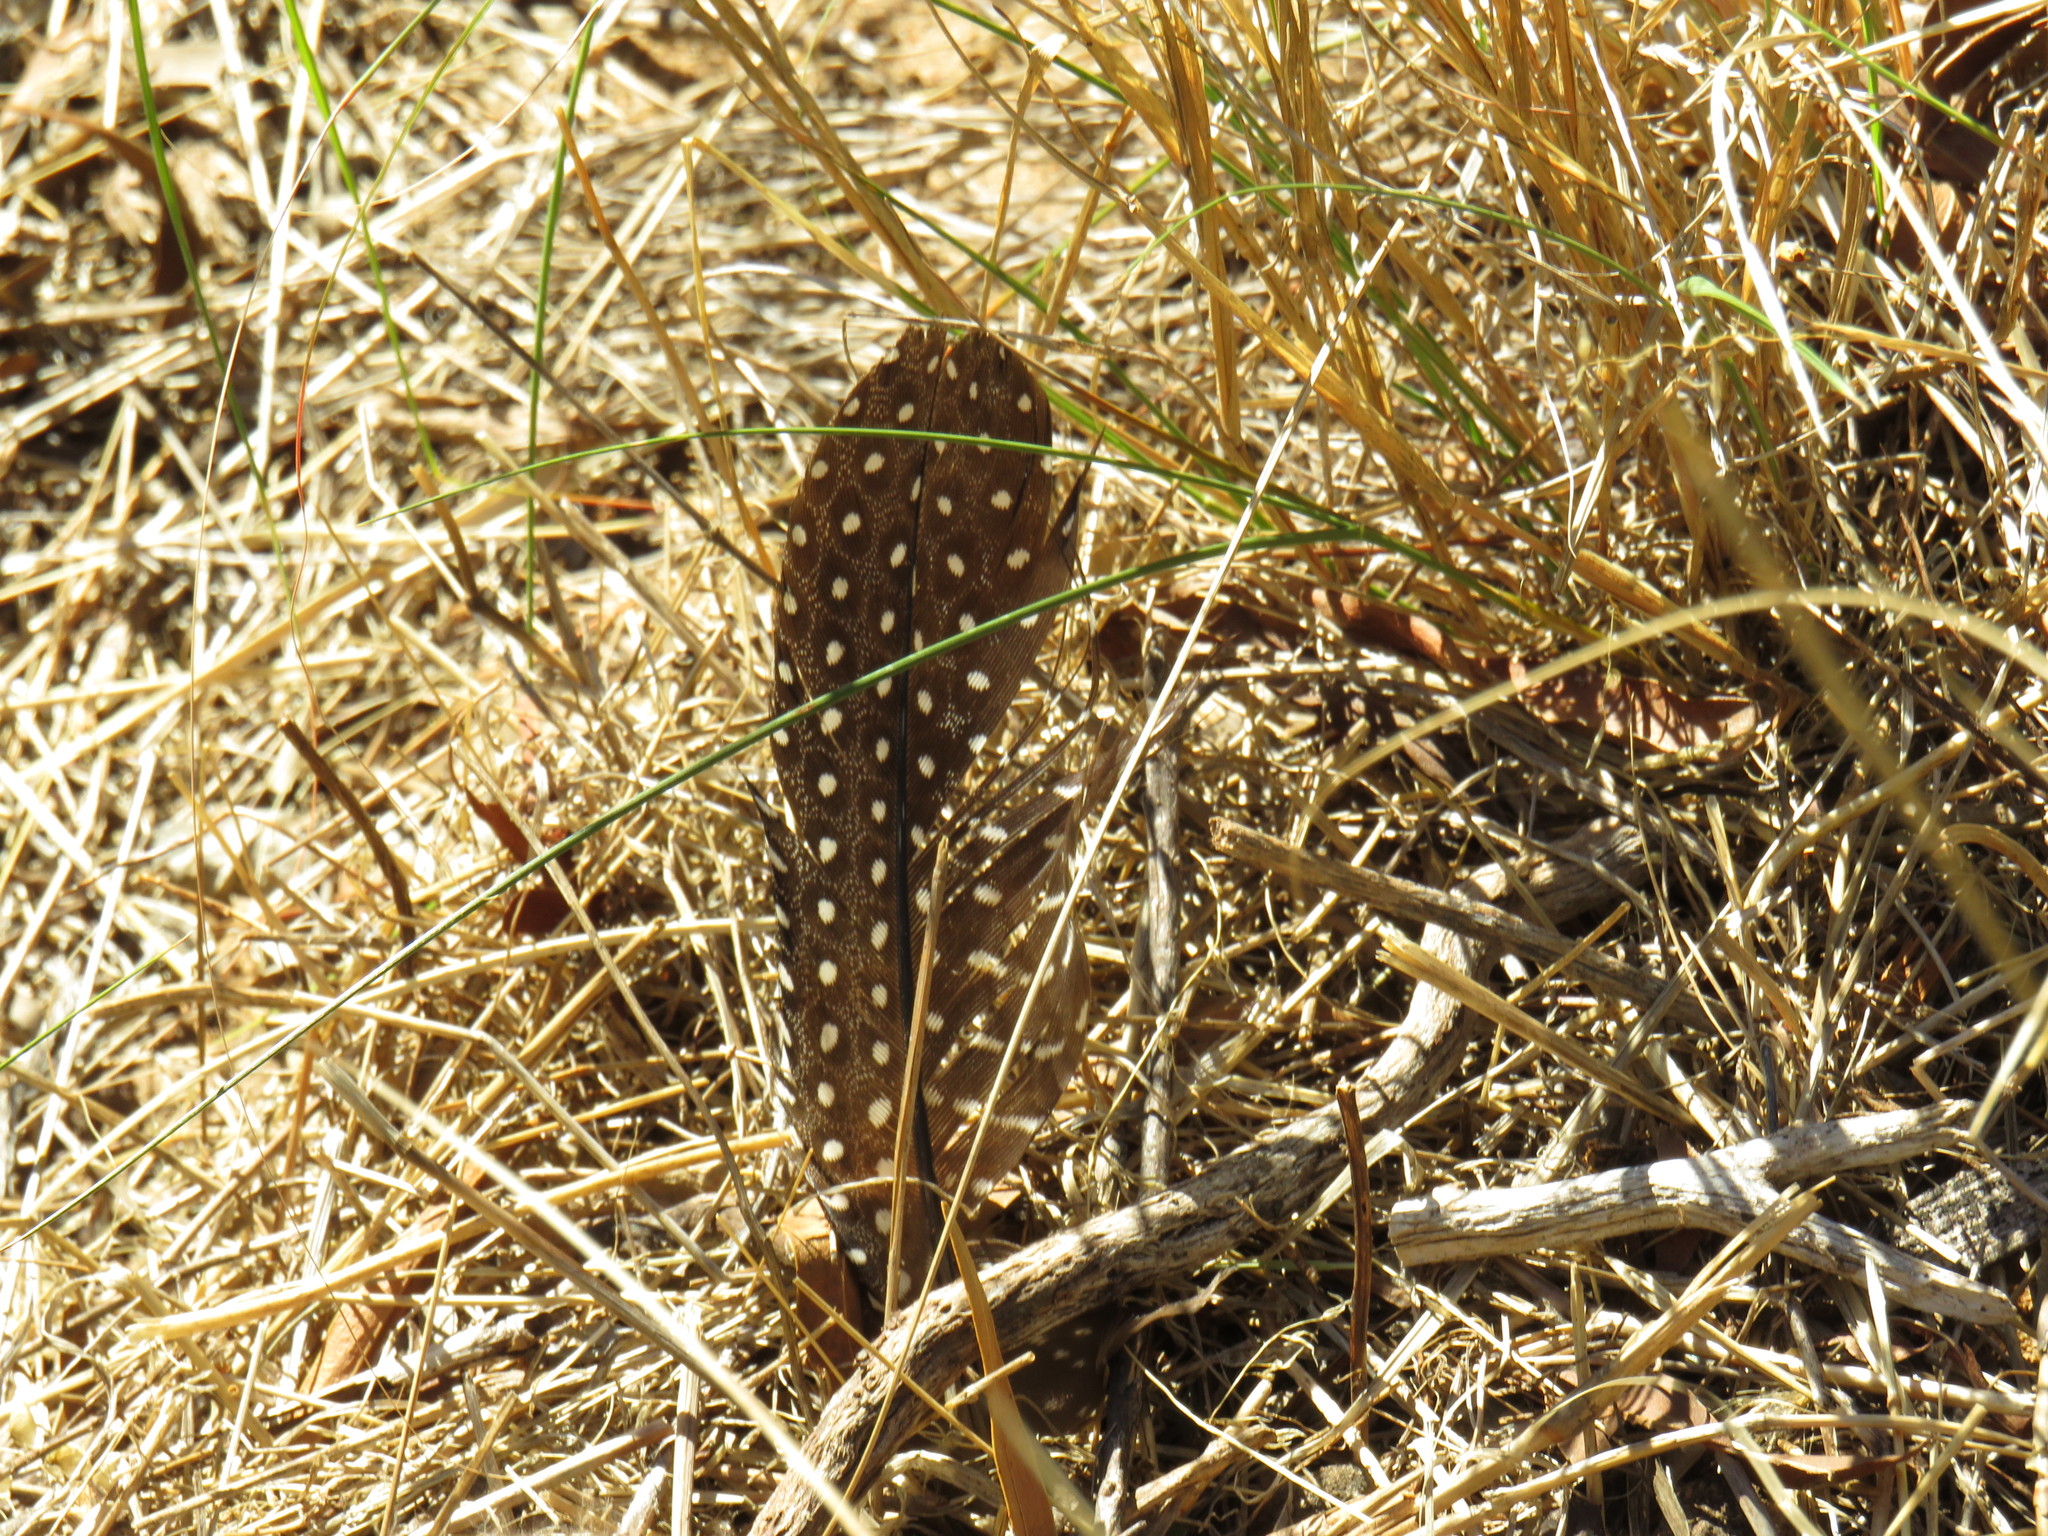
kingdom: Animalia
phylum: Chordata
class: Aves
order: Galliformes
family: Numididae
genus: Numida
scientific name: Numida meleagris
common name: Helmeted guineafowl
